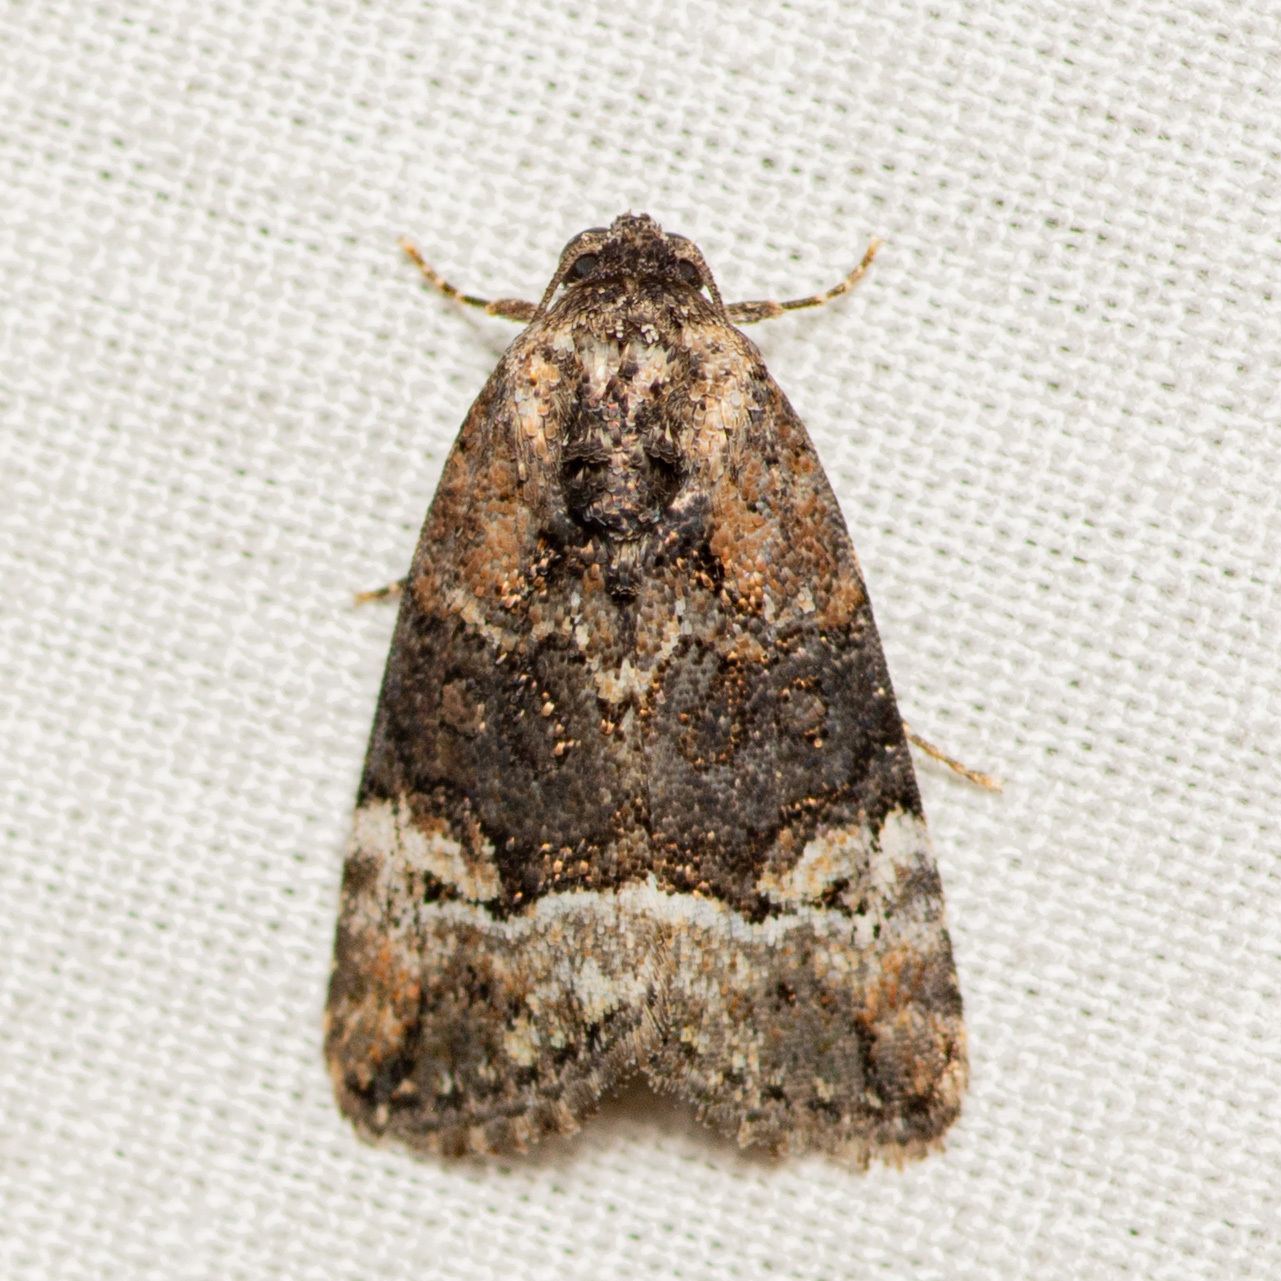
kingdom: Animalia
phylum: Arthropoda
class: Insecta
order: Lepidoptera
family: Noctuidae
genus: Elaphria
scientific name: Elaphria georgei
